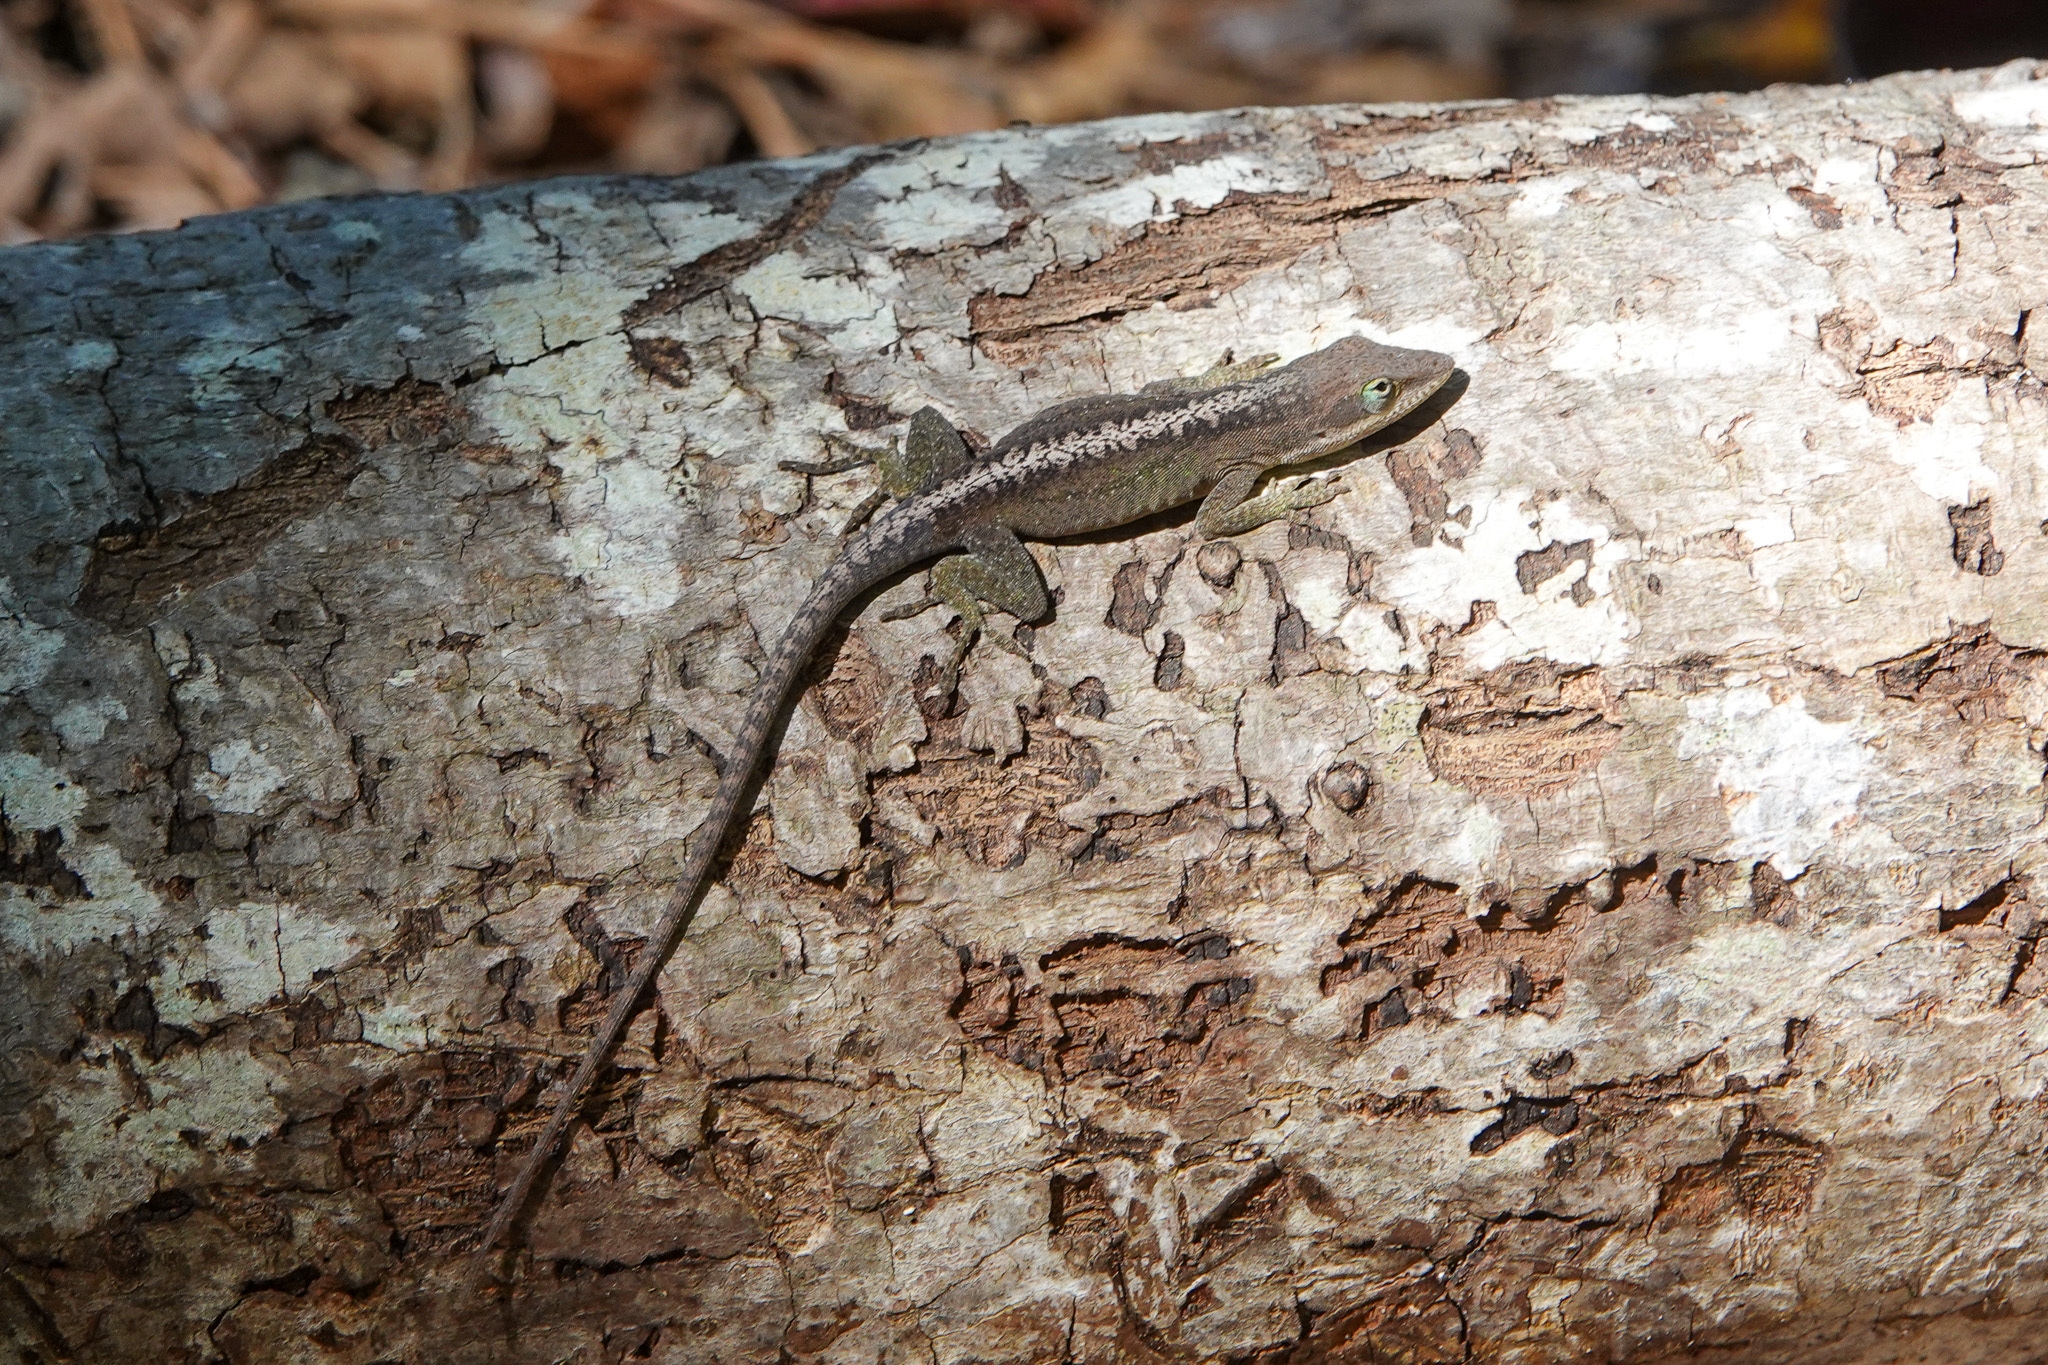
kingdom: Animalia
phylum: Chordata
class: Squamata
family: Dactyloidae
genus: Anolis
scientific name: Anolis carolinensis
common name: Green anole
